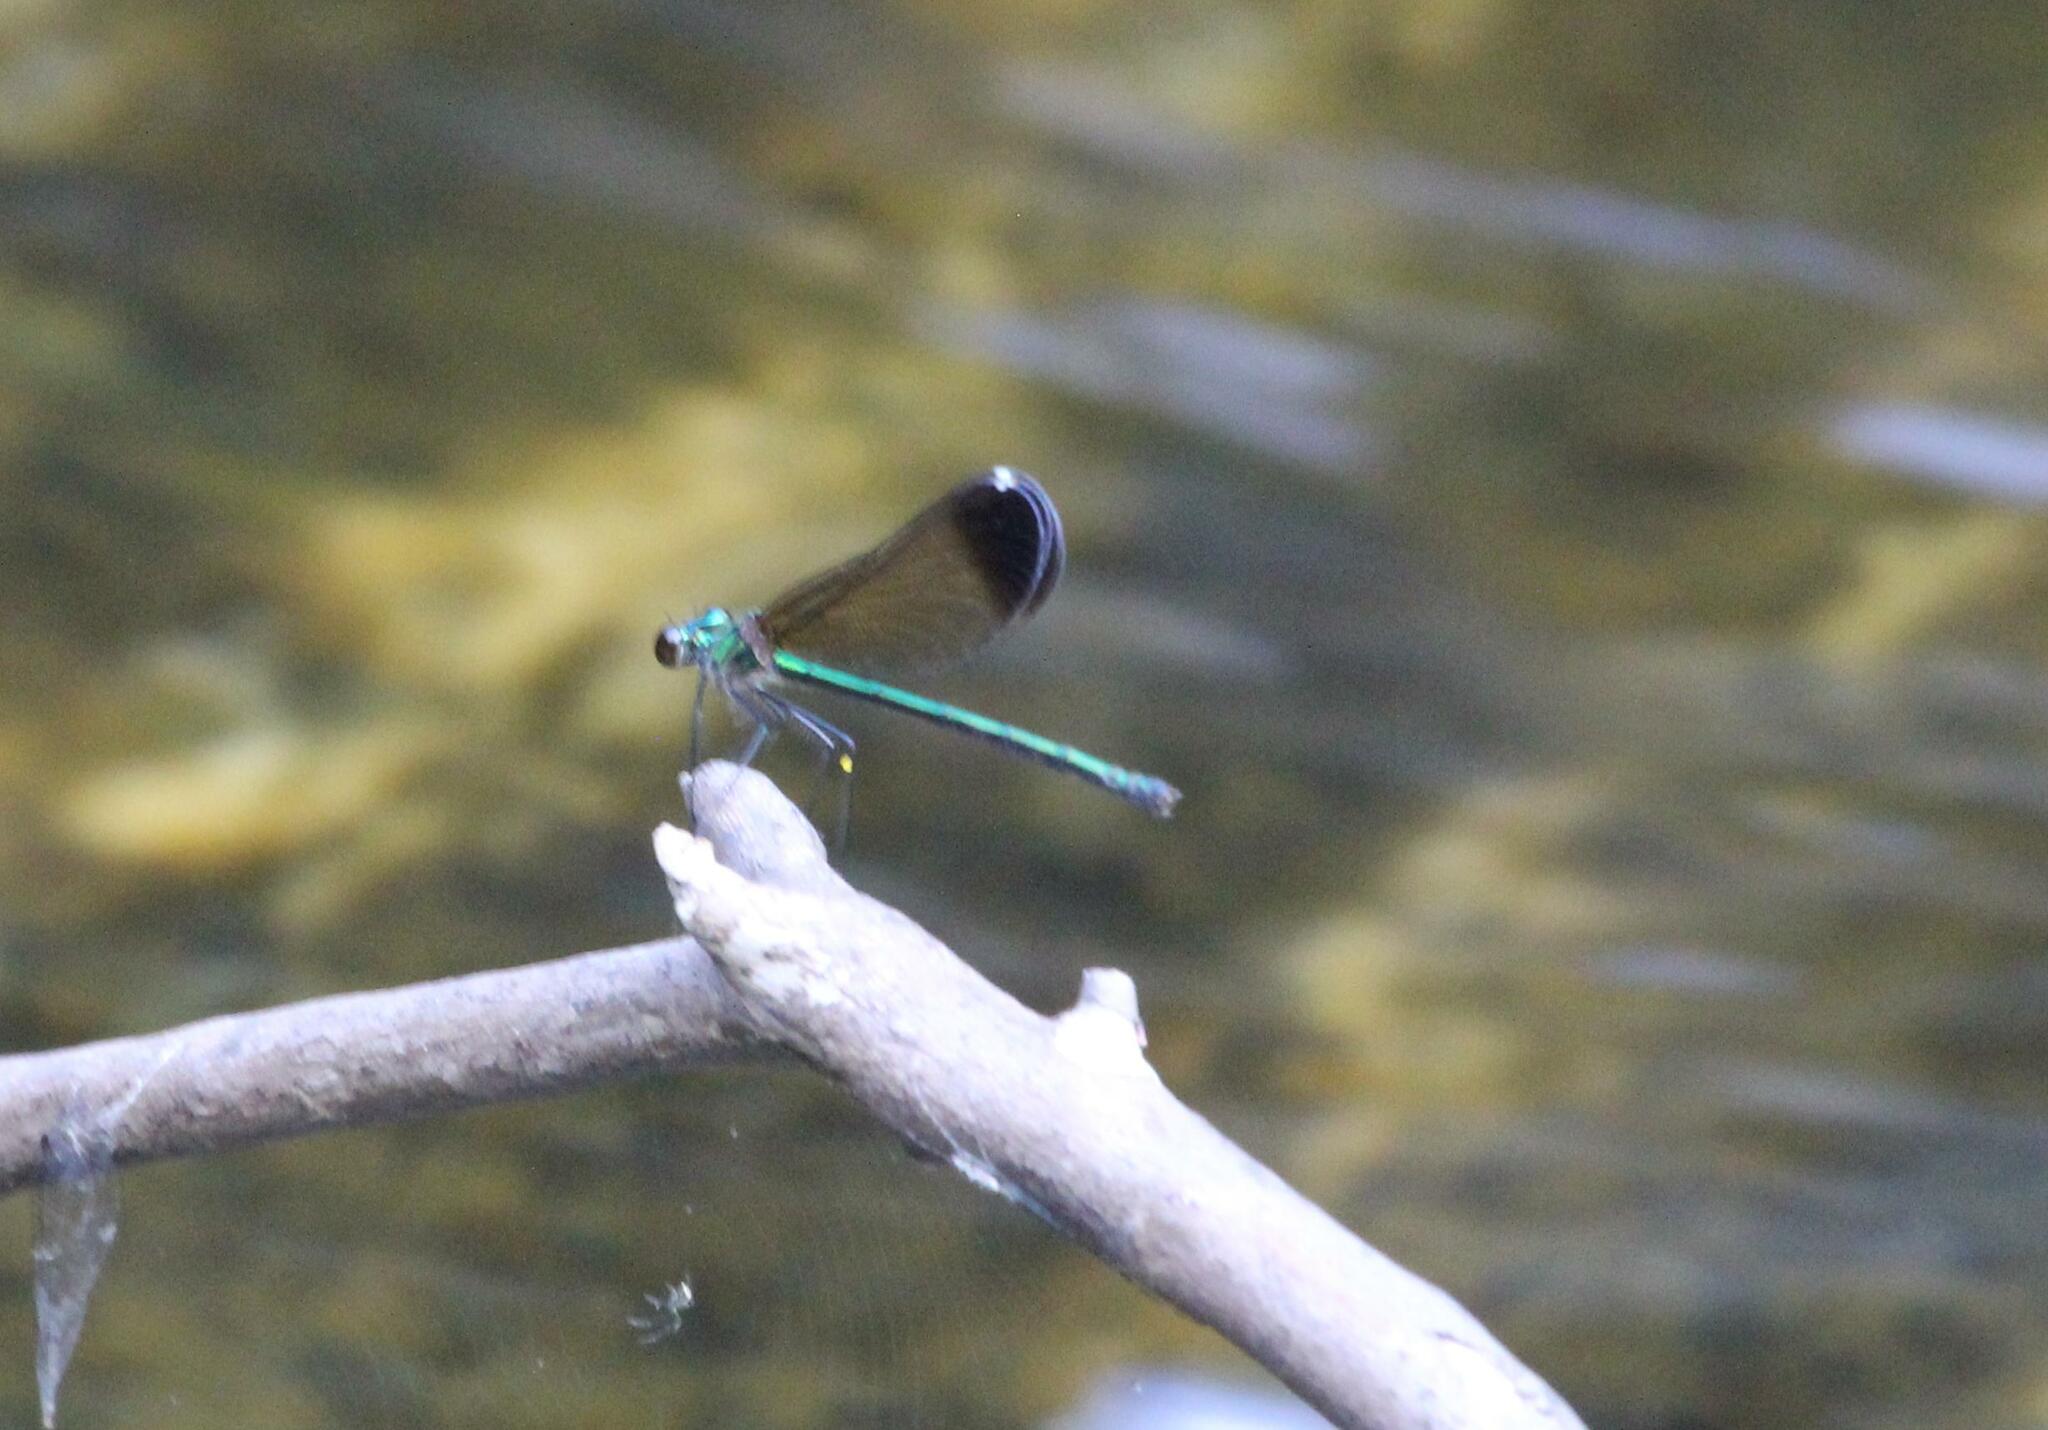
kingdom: Animalia
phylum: Arthropoda
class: Insecta
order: Odonata
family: Calopterygidae
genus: Calopteryx
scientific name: Calopteryx dimidiata
